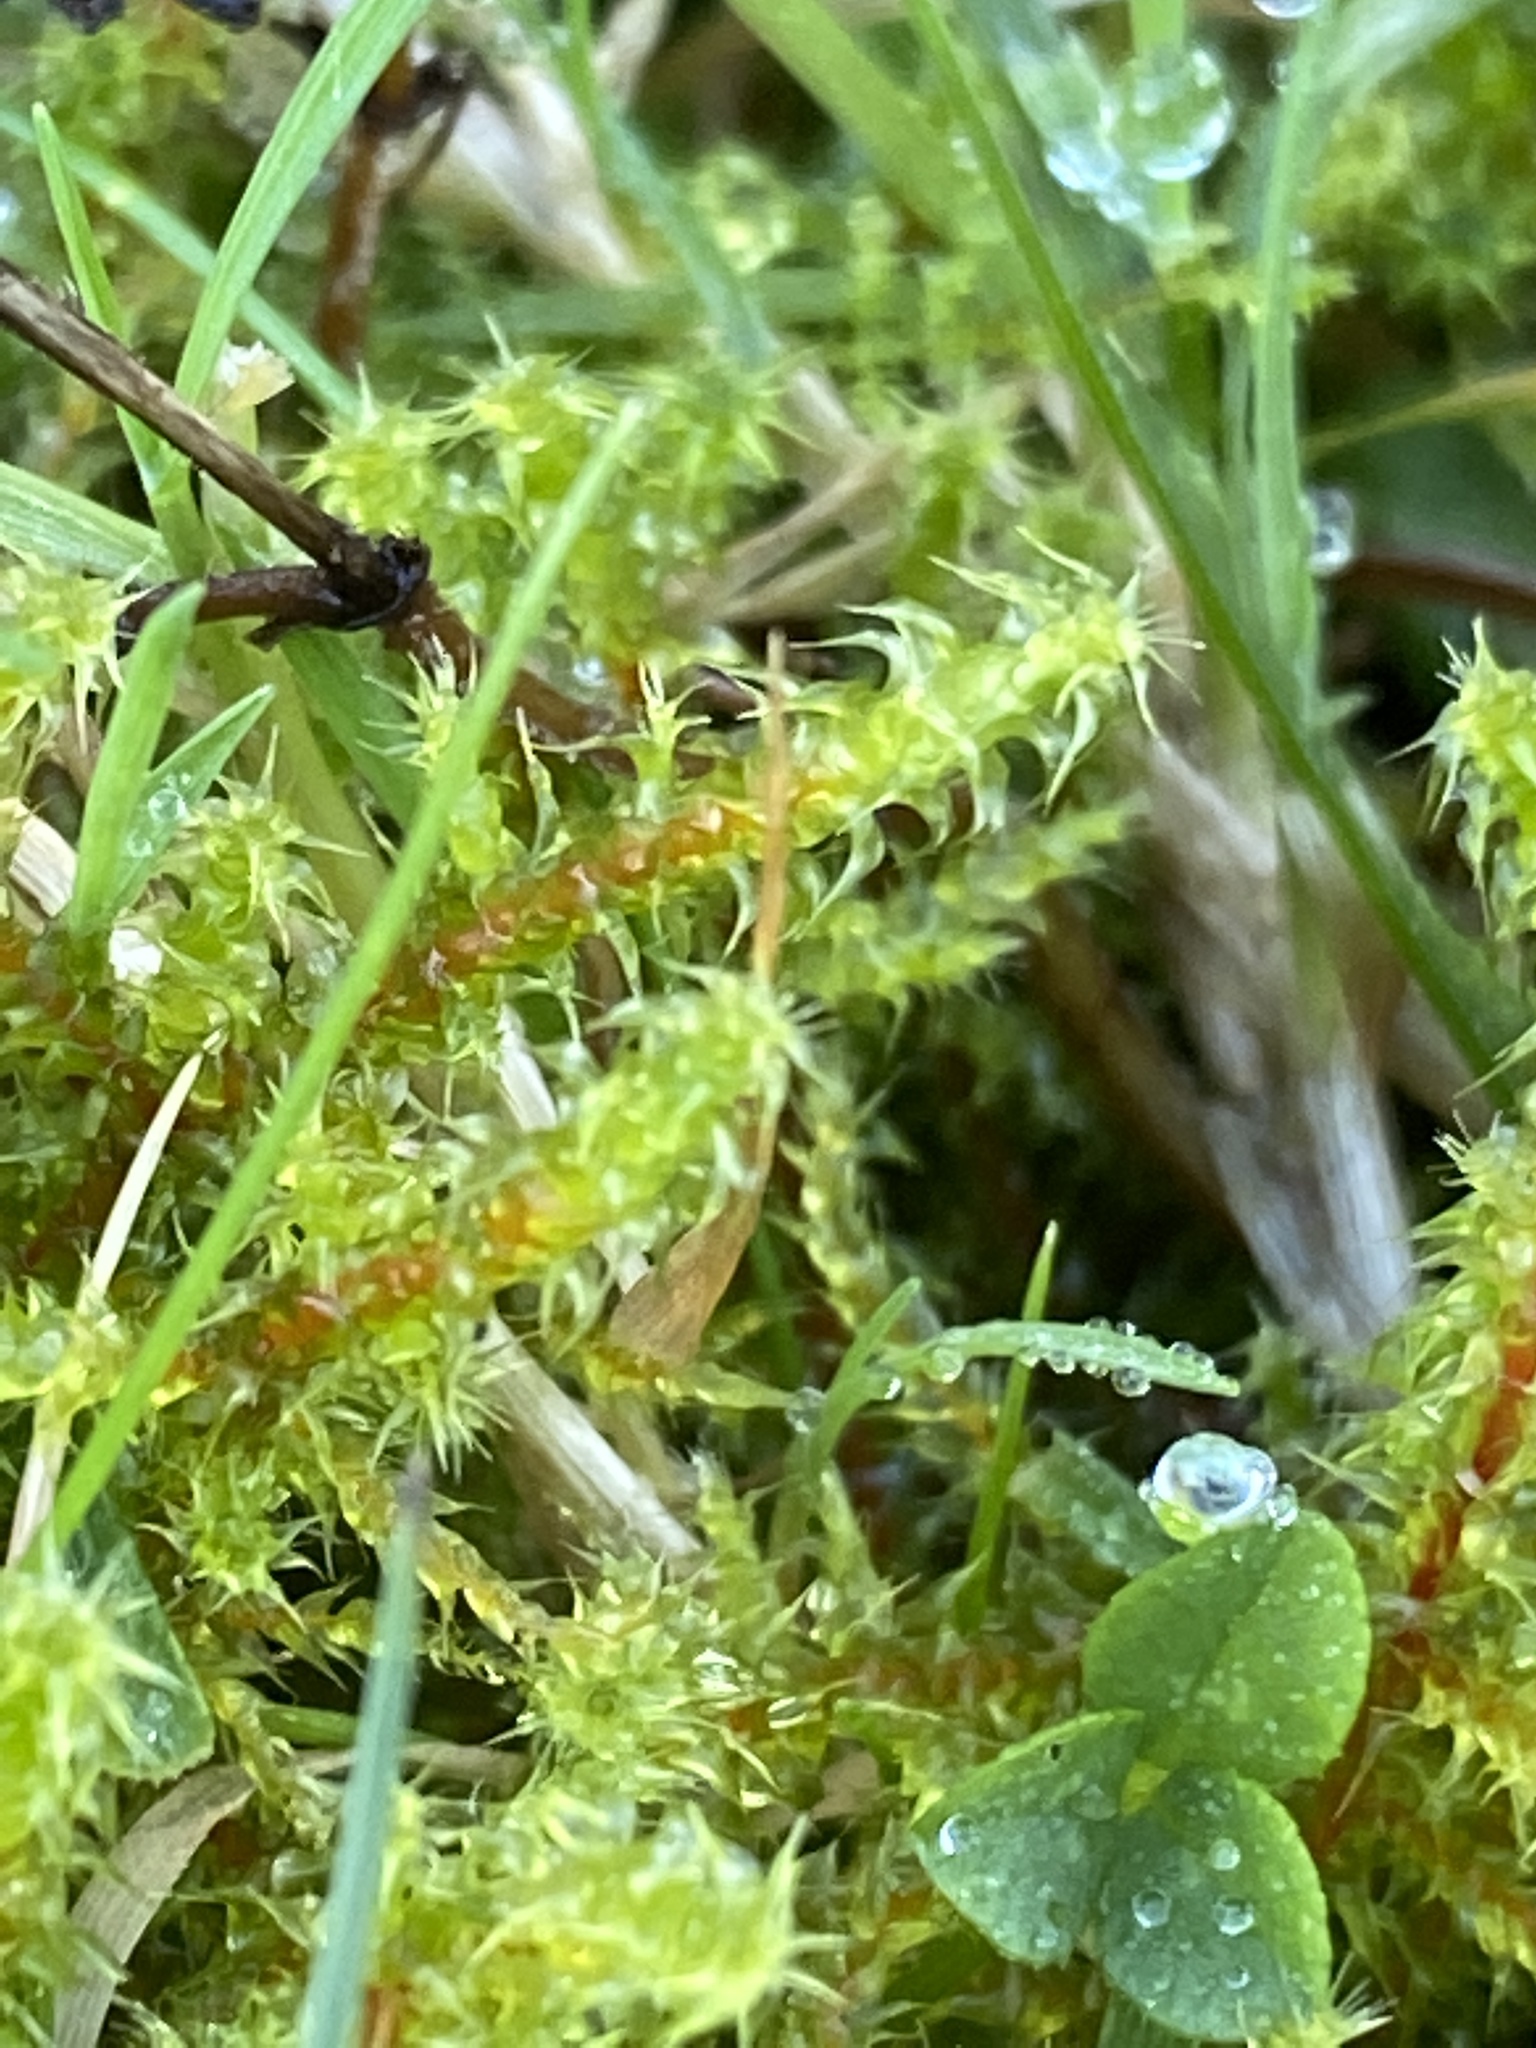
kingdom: Plantae
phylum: Bryophyta
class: Bryopsida
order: Hypnales
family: Hylocomiaceae
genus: Rhytidiadelphus
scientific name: Rhytidiadelphus squarrosus
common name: Springy turf-moss
